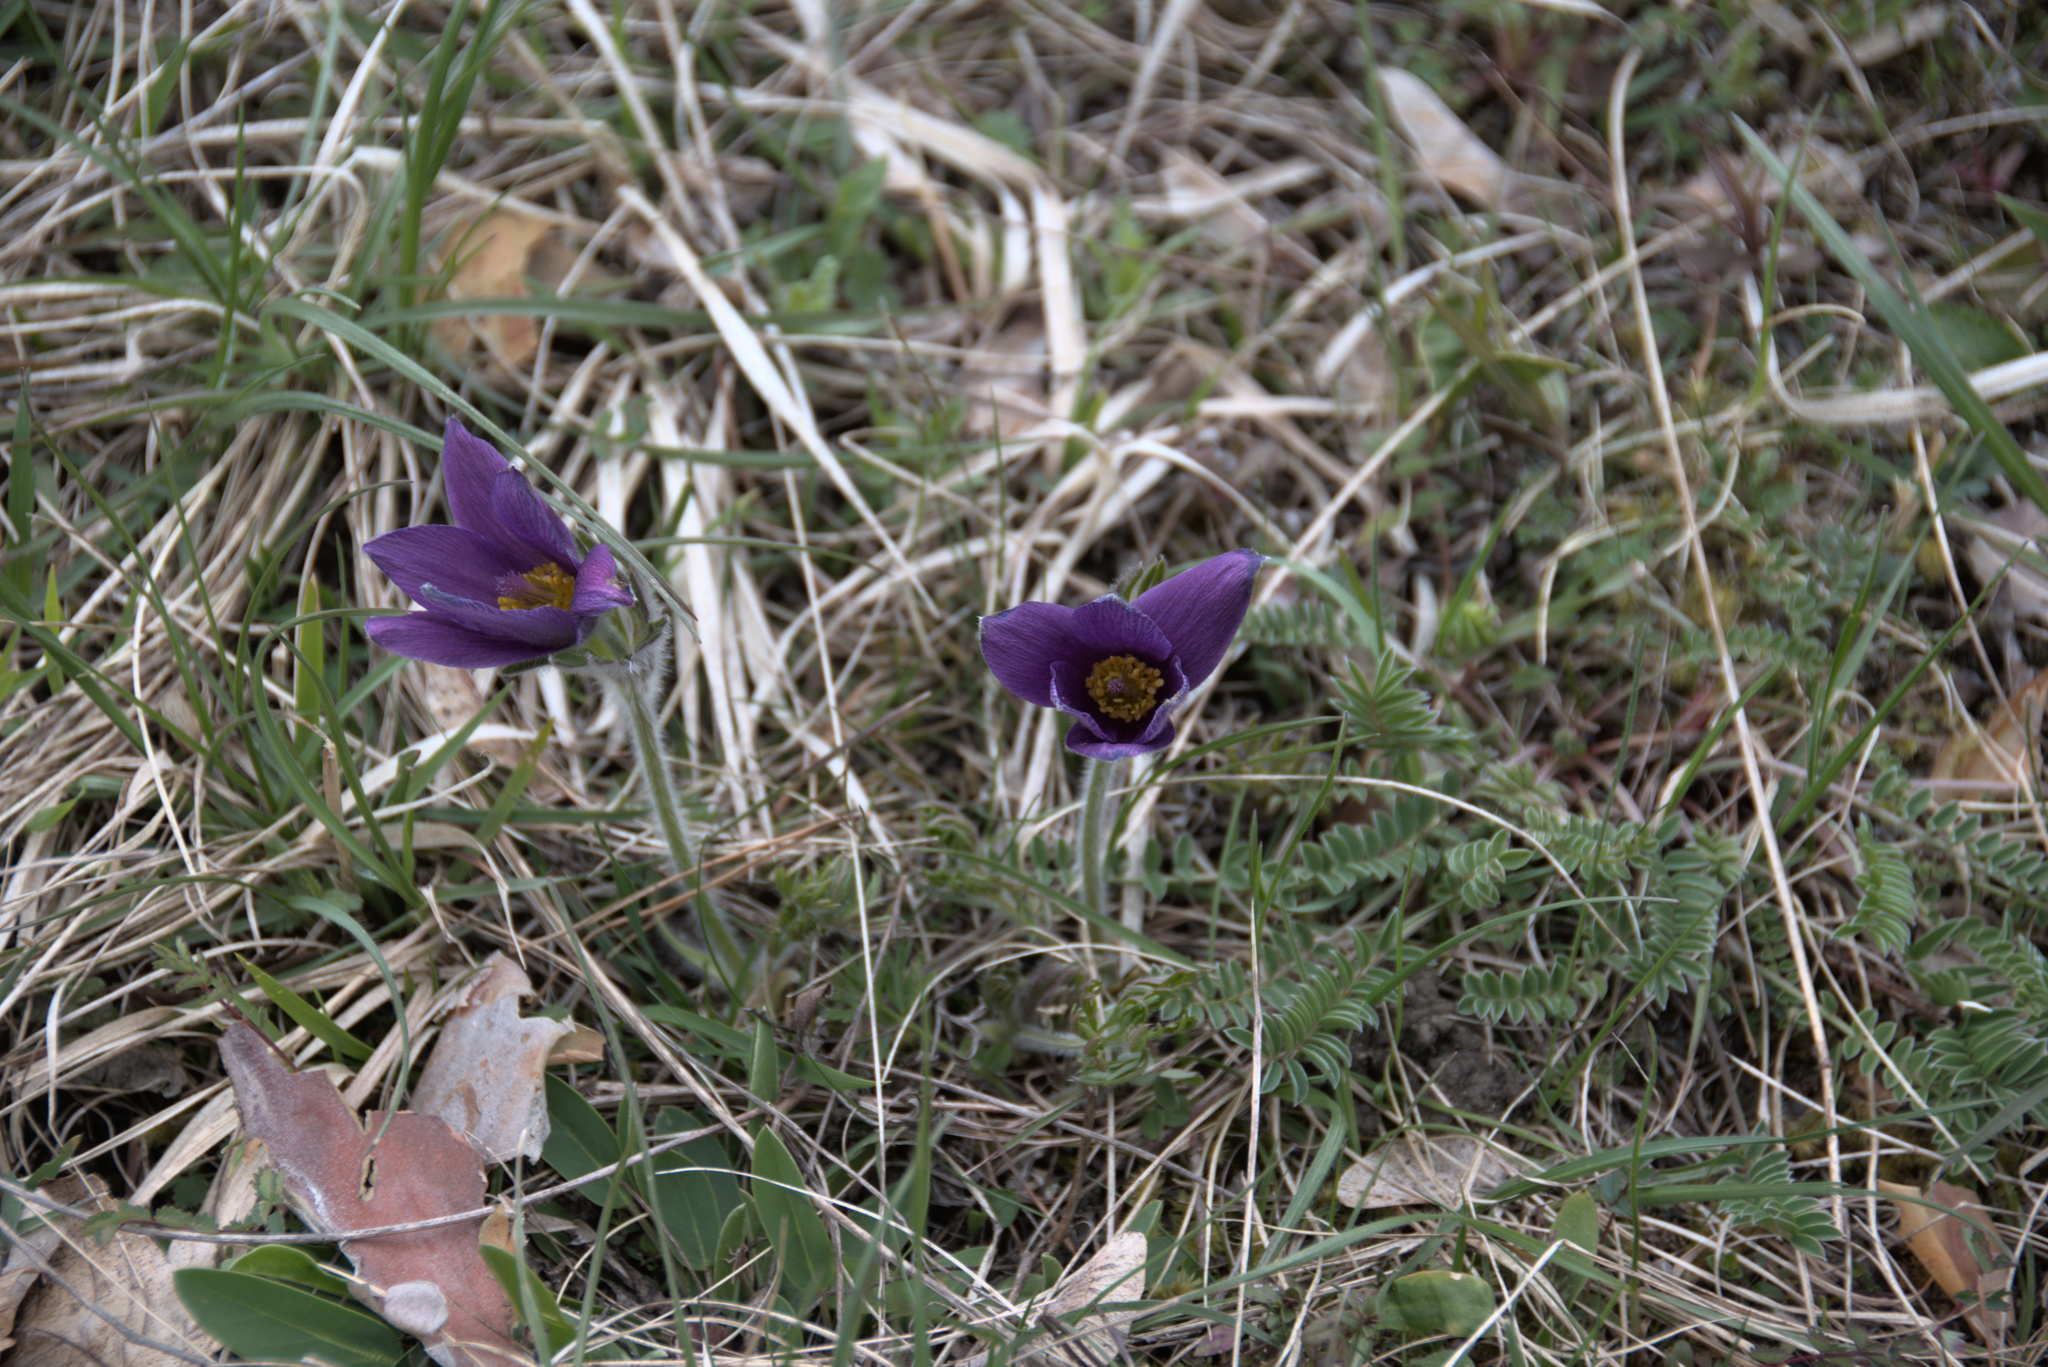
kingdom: Plantae
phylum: Tracheophyta
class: Magnoliopsida
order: Ranunculales
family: Ranunculaceae
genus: Pulsatilla
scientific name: Pulsatilla vulgaris
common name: Pasqueflower
